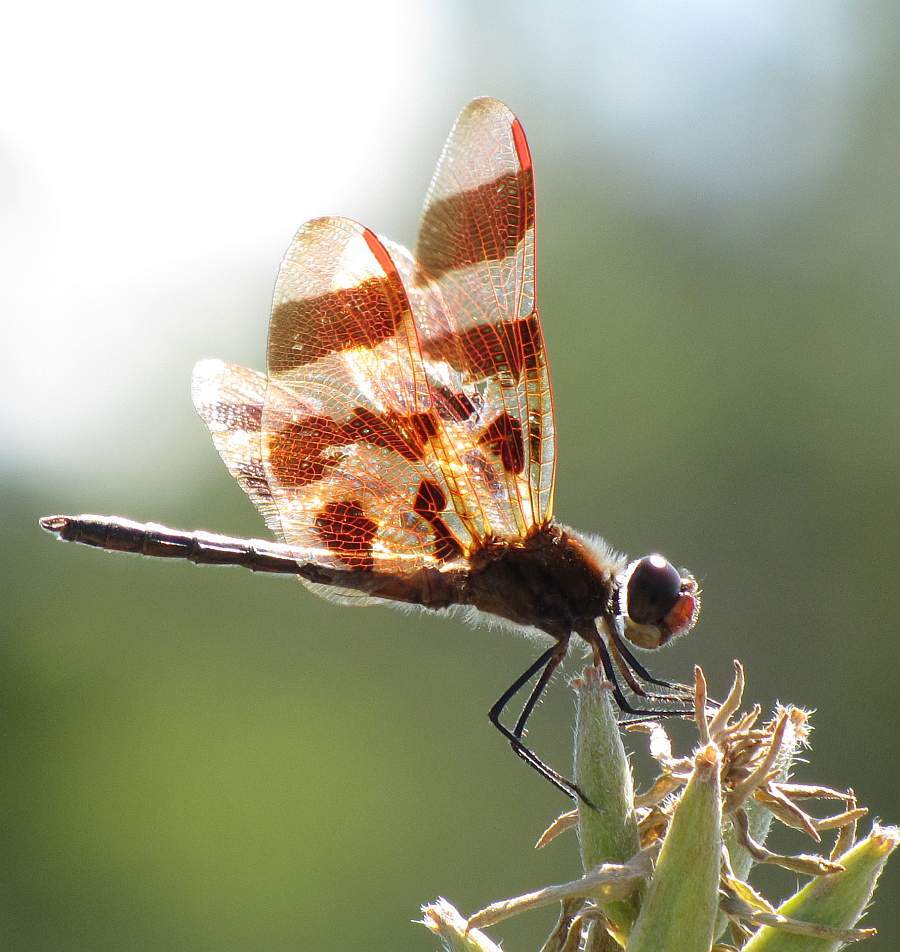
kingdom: Animalia
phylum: Arthropoda
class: Insecta
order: Odonata
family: Libellulidae
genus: Celithemis
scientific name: Celithemis eponina
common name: Halloween pennant
